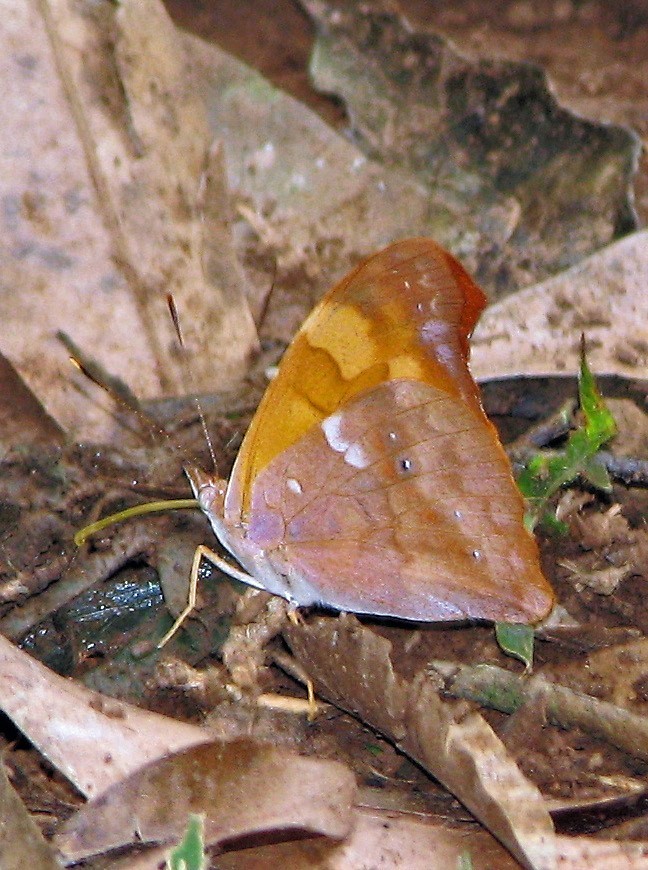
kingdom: Animalia
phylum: Arthropoda
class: Insecta
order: Lepidoptera
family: Nymphalidae
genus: Temenis
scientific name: Temenis laothoe
